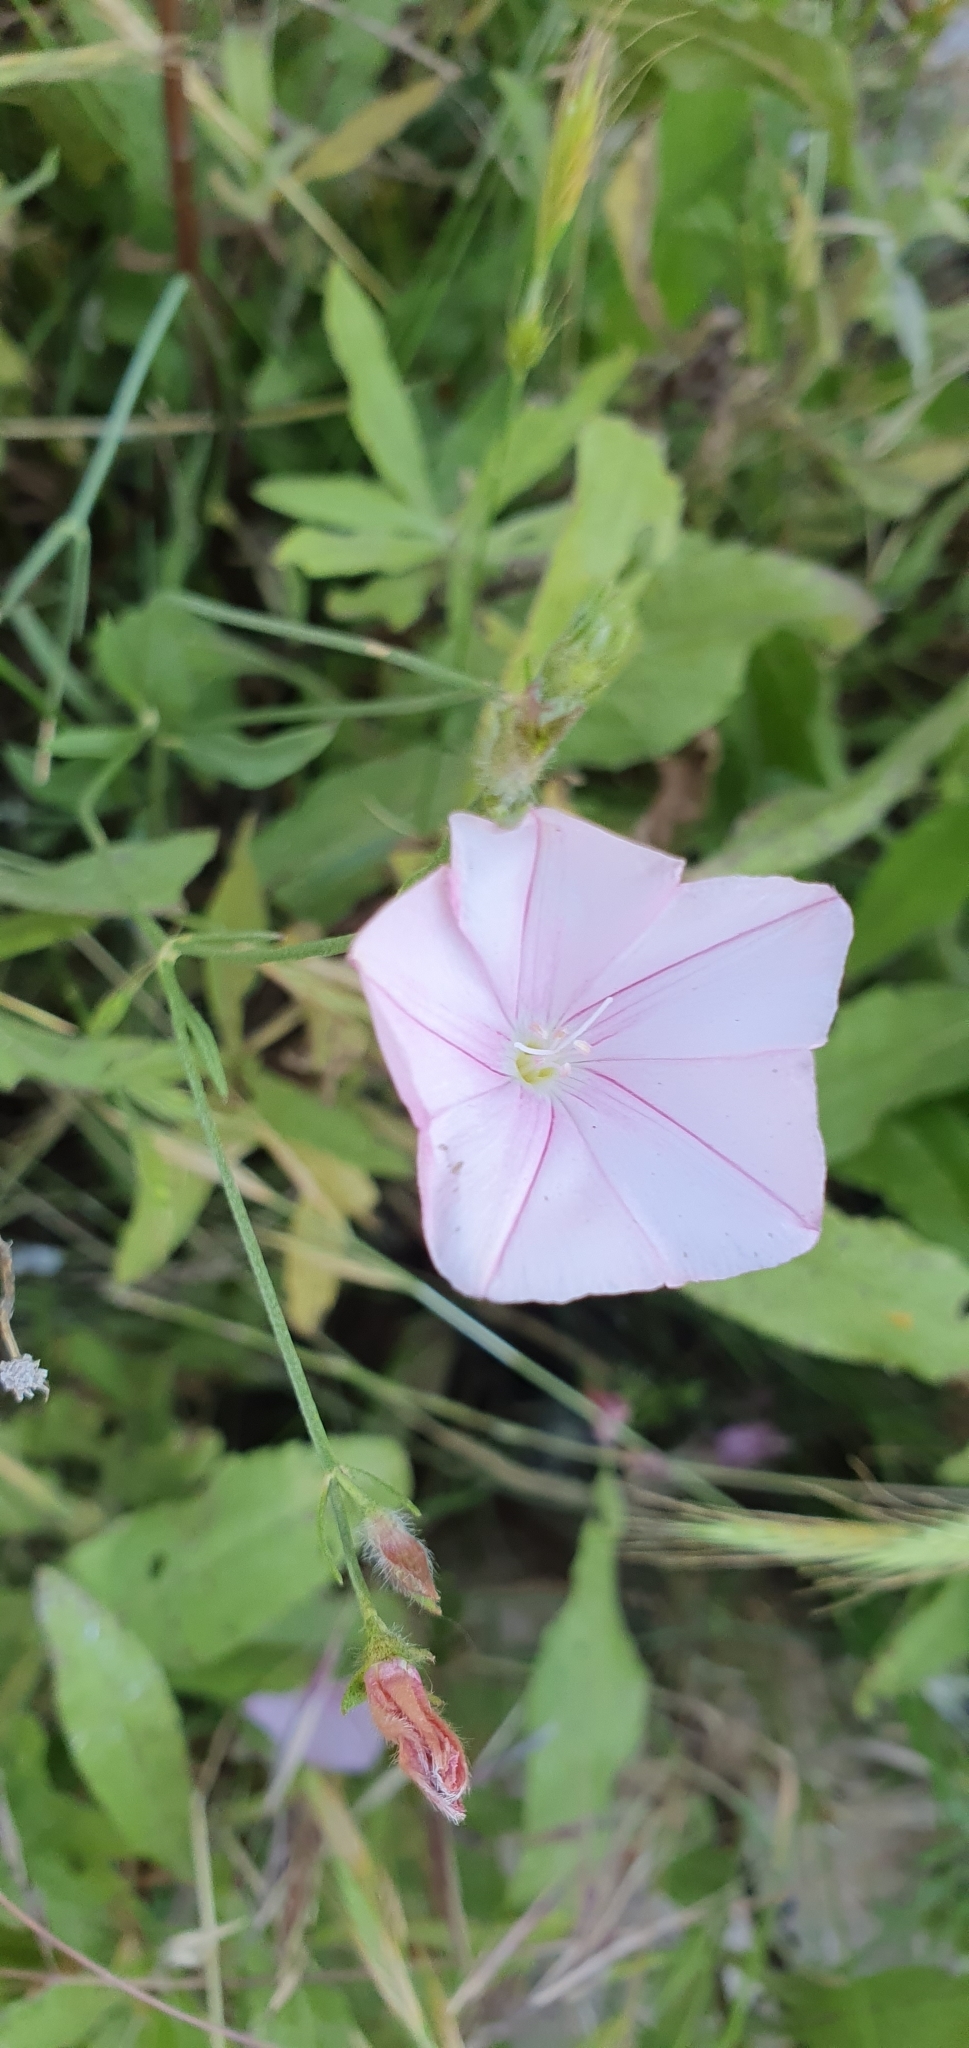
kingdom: Plantae
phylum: Tracheophyta
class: Magnoliopsida
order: Solanales
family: Convolvulaceae
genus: Convolvulus
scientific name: Convolvulus cantabrica
